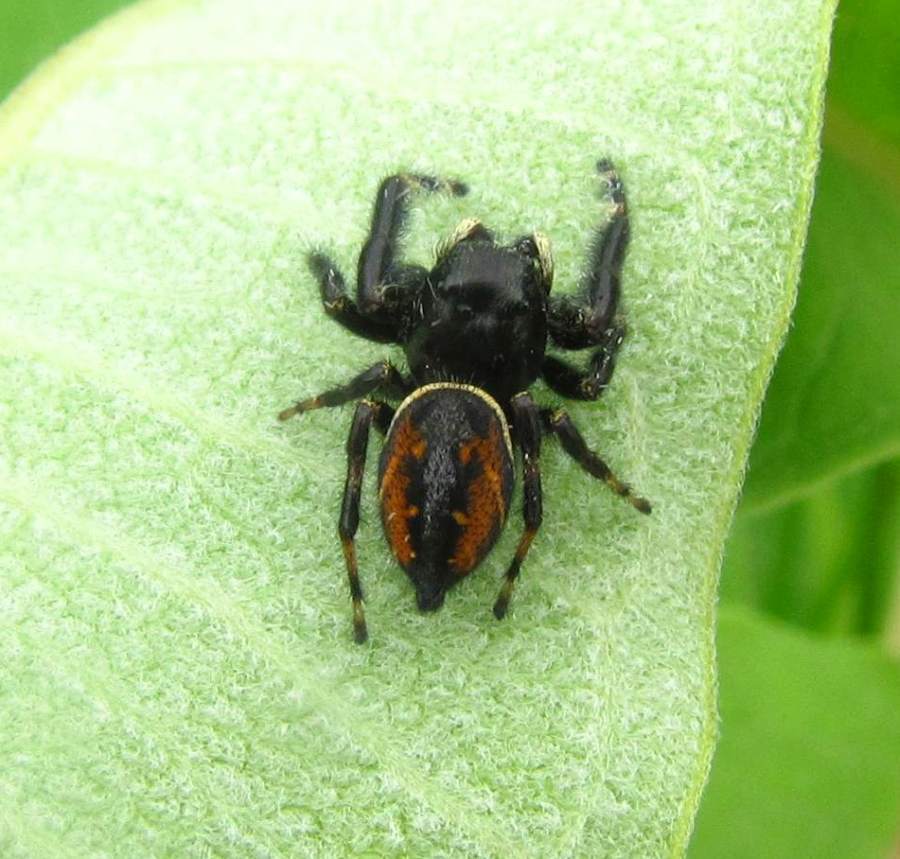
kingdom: Animalia
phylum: Arthropoda
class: Arachnida
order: Araneae
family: Salticidae
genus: Phidippus
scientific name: Phidippus clarus
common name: Brilliant jumping spider
